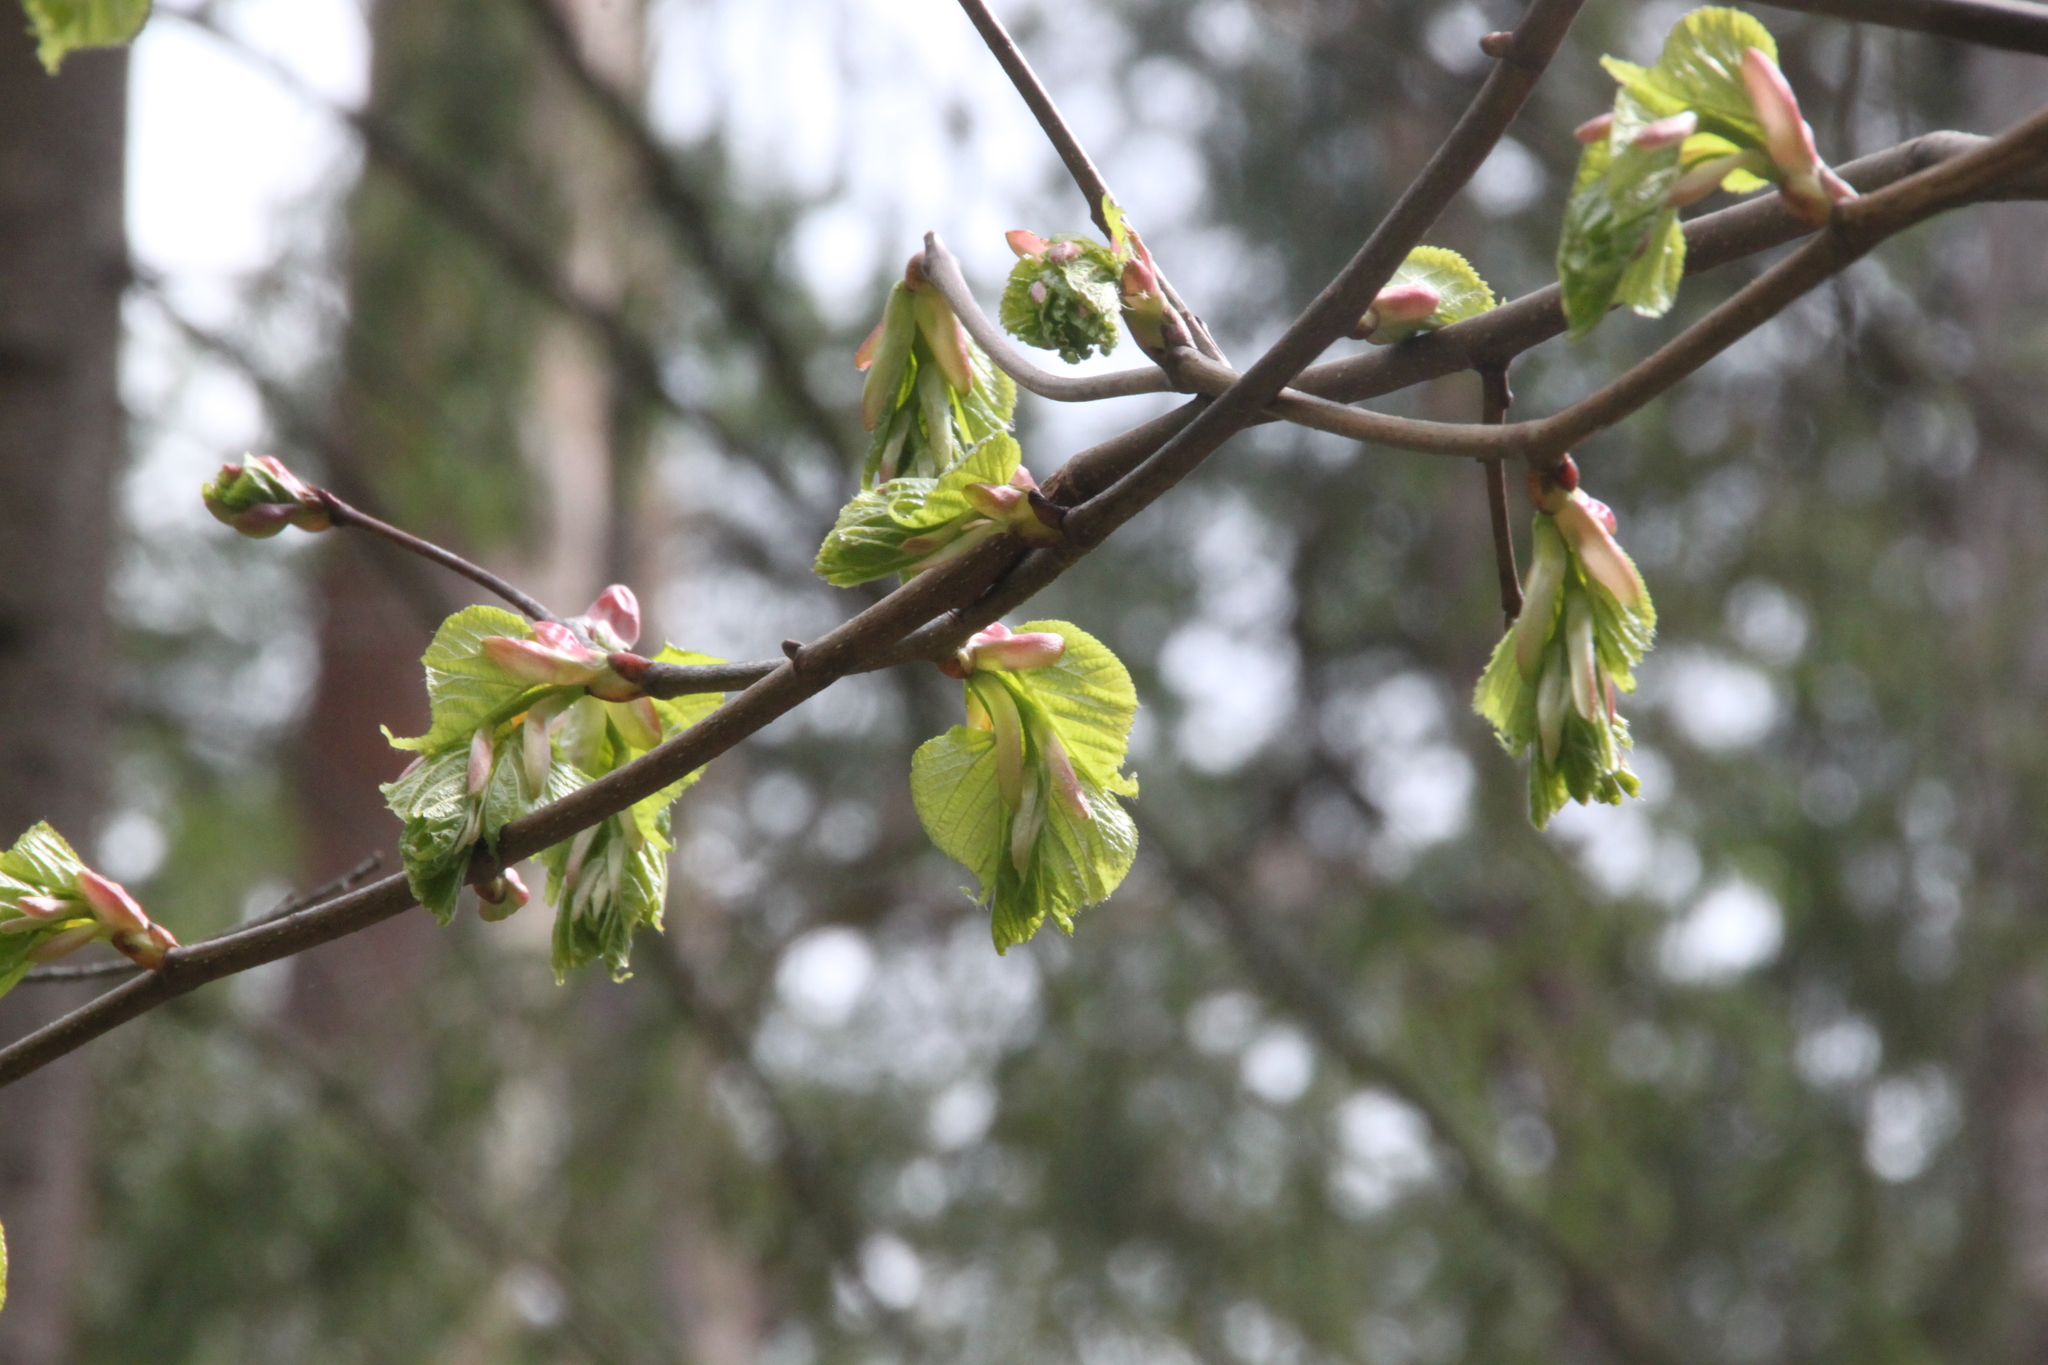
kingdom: Plantae
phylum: Tracheophyta
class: Magnoliopsida
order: Malvales
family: Malvaceae
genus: Tilia
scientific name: Tilia cordata
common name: Small-leaved lime
